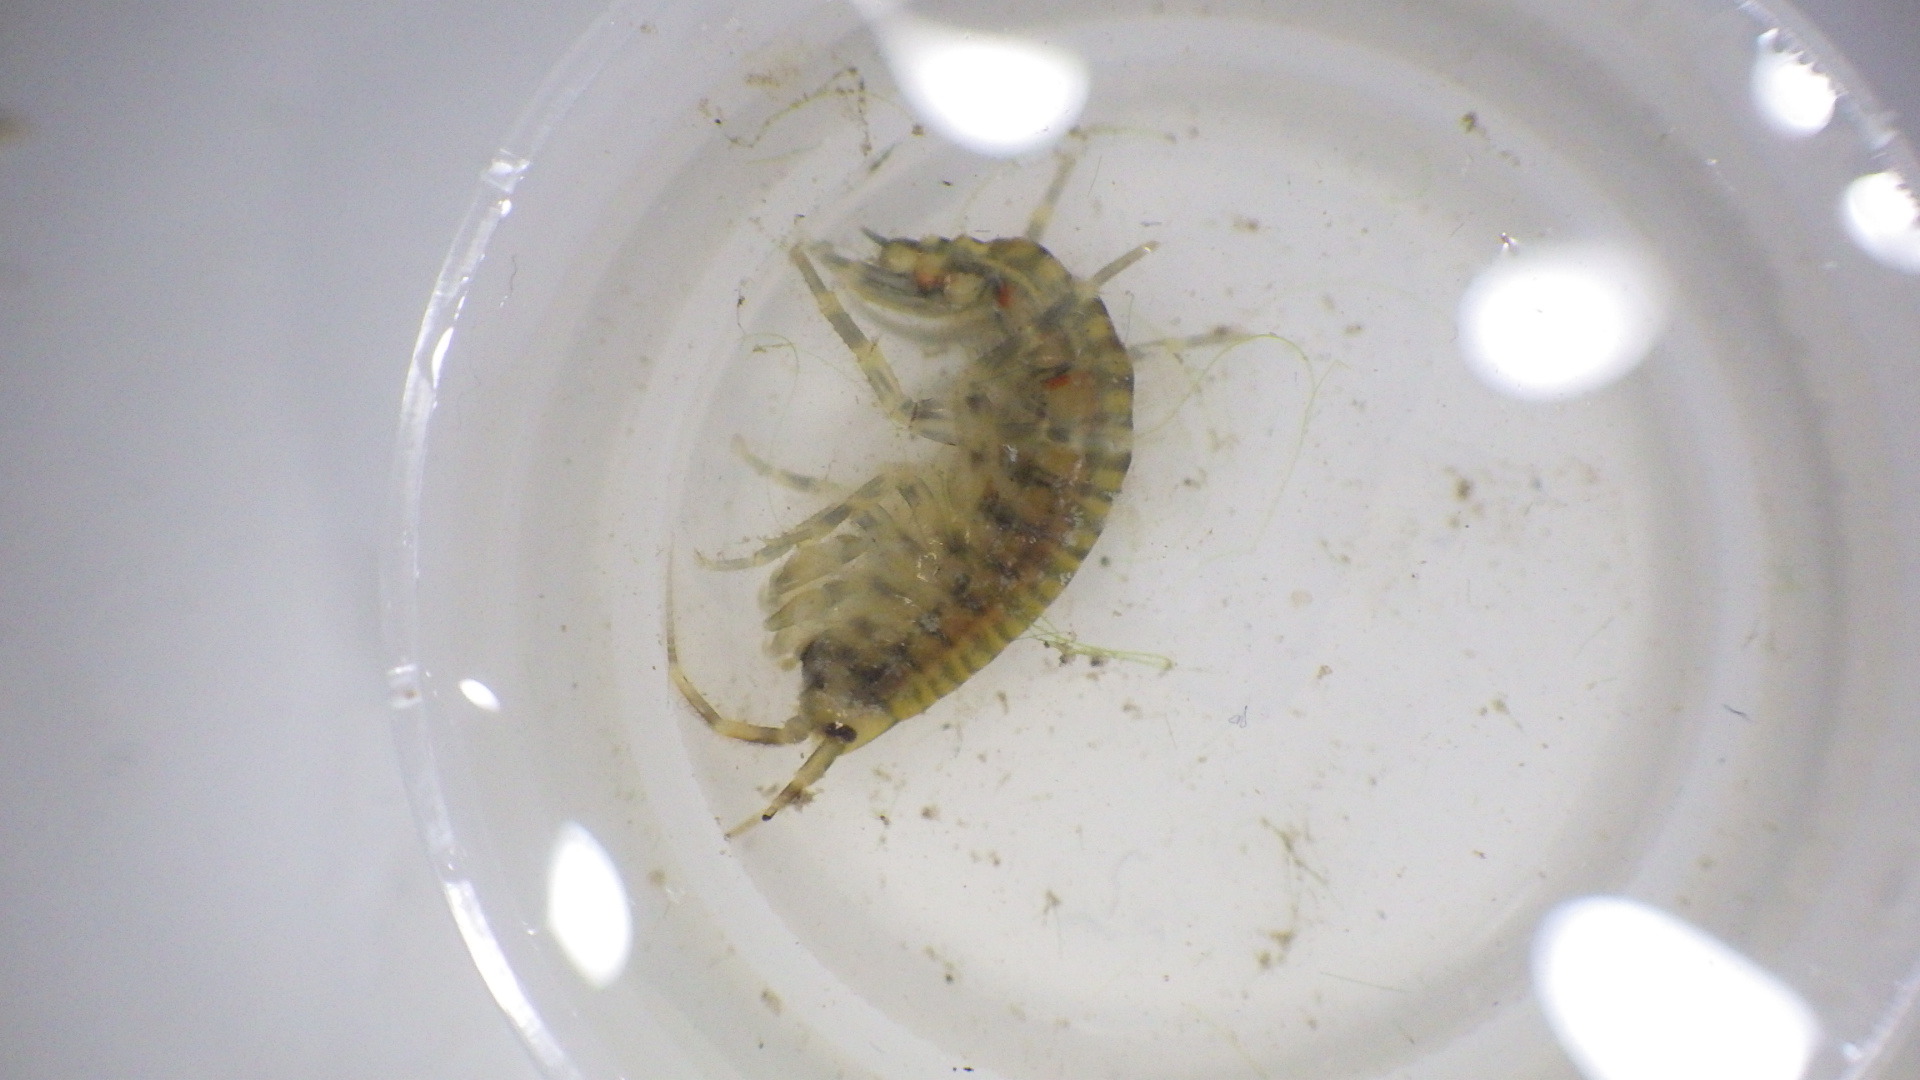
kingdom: Animalia
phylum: Arthropoda
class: Malacostraca
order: Amphipoda
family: Gammaridae
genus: Gammarus
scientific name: Gammarus fasciatus
